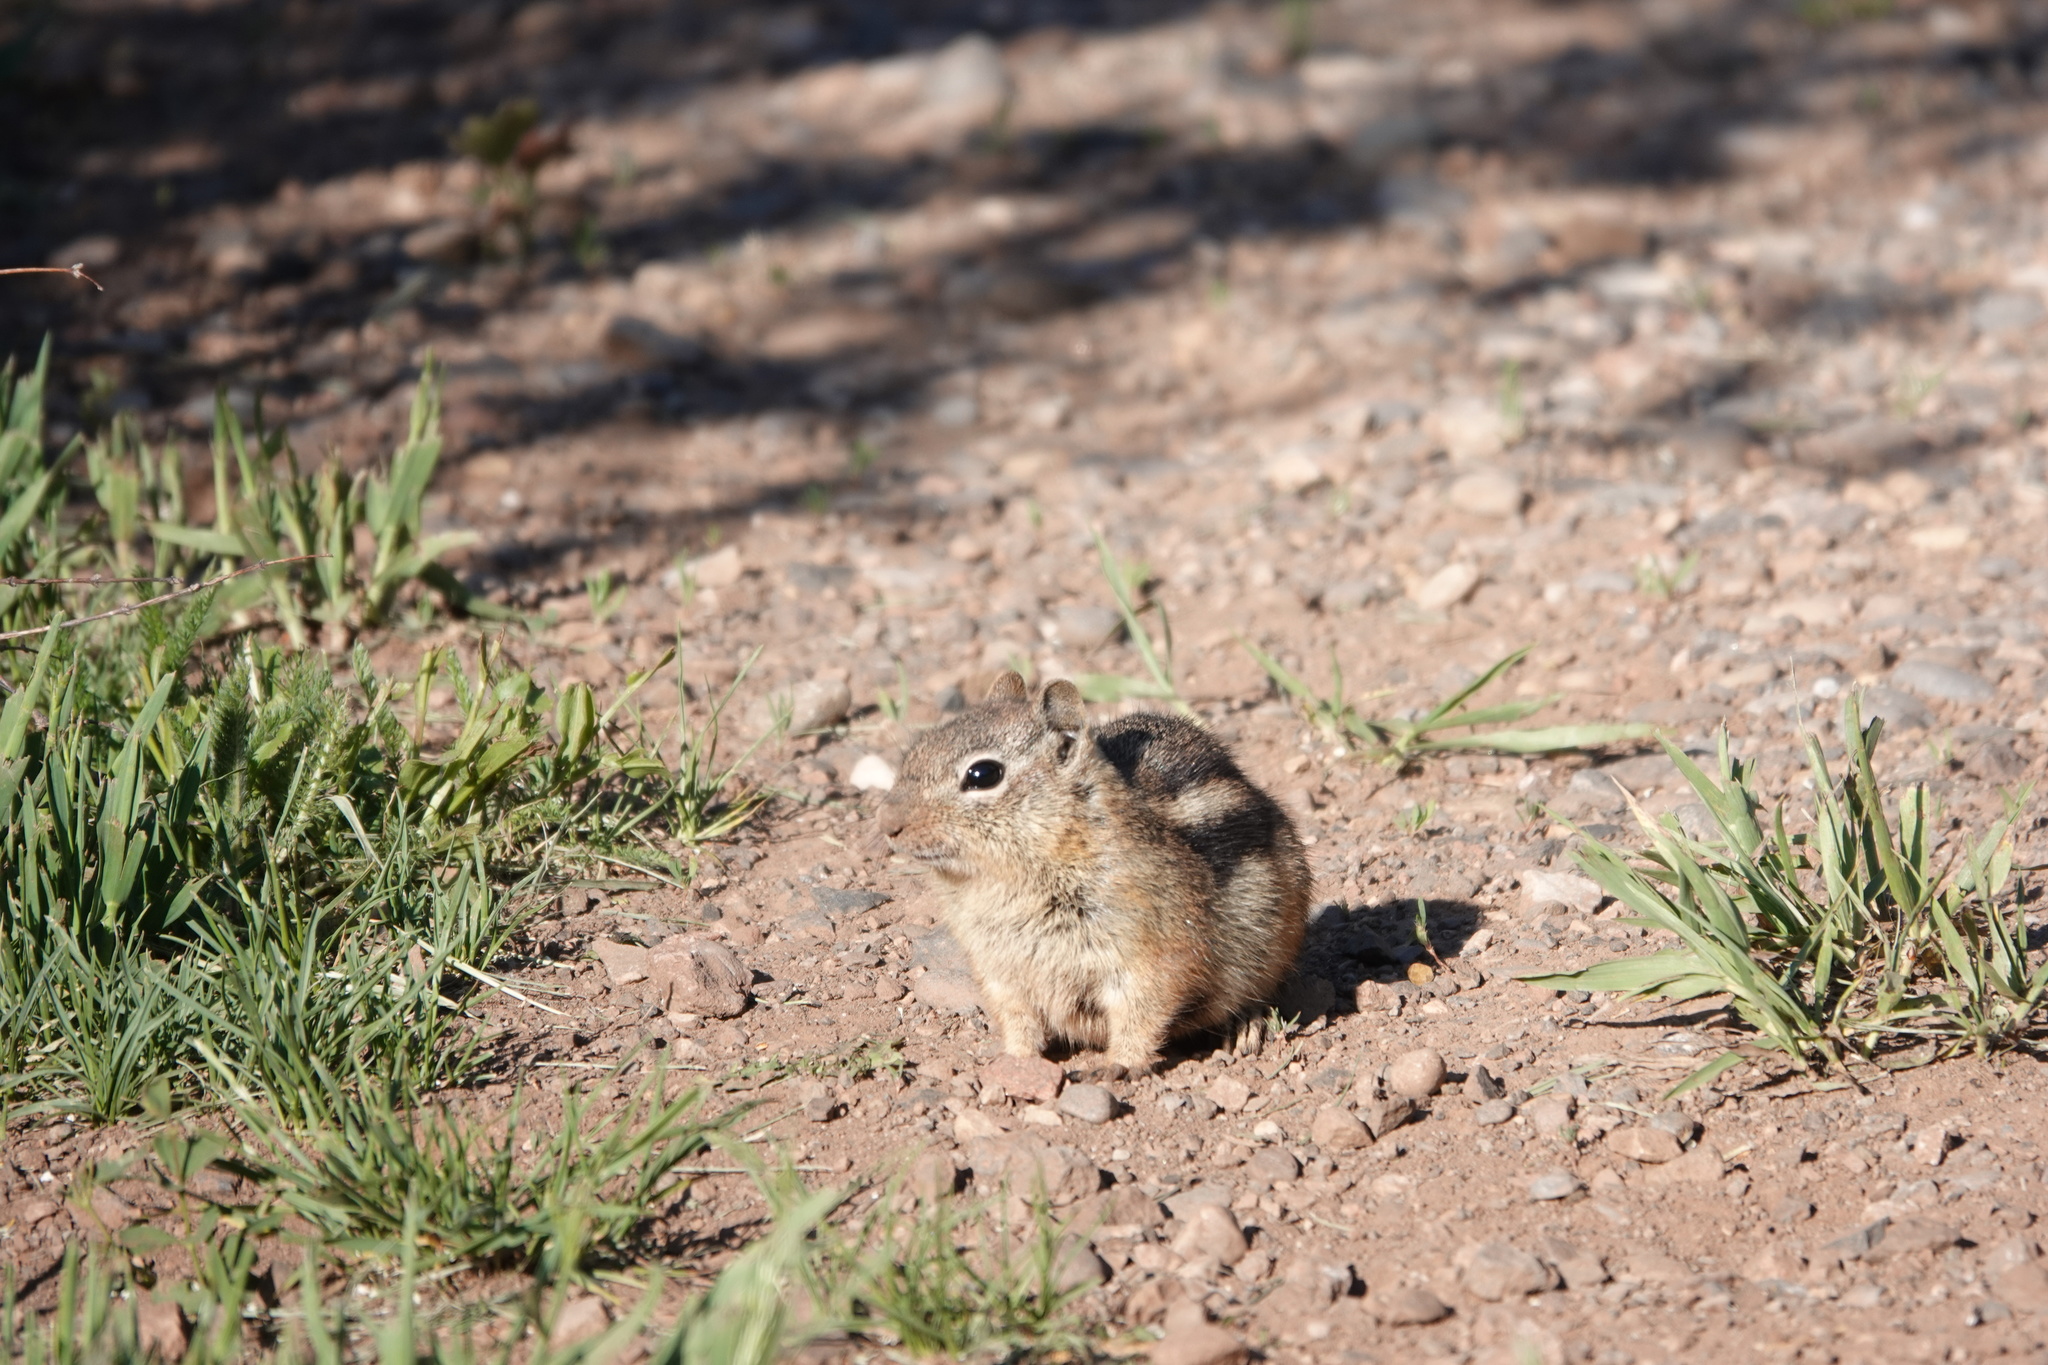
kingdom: Animalia
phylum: Chordata
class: Mammalia
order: Rodentia
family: Sciuridae
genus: Callospermophilus
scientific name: Callospermophilus lateralis
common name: Golden-mantled ground squirrel
